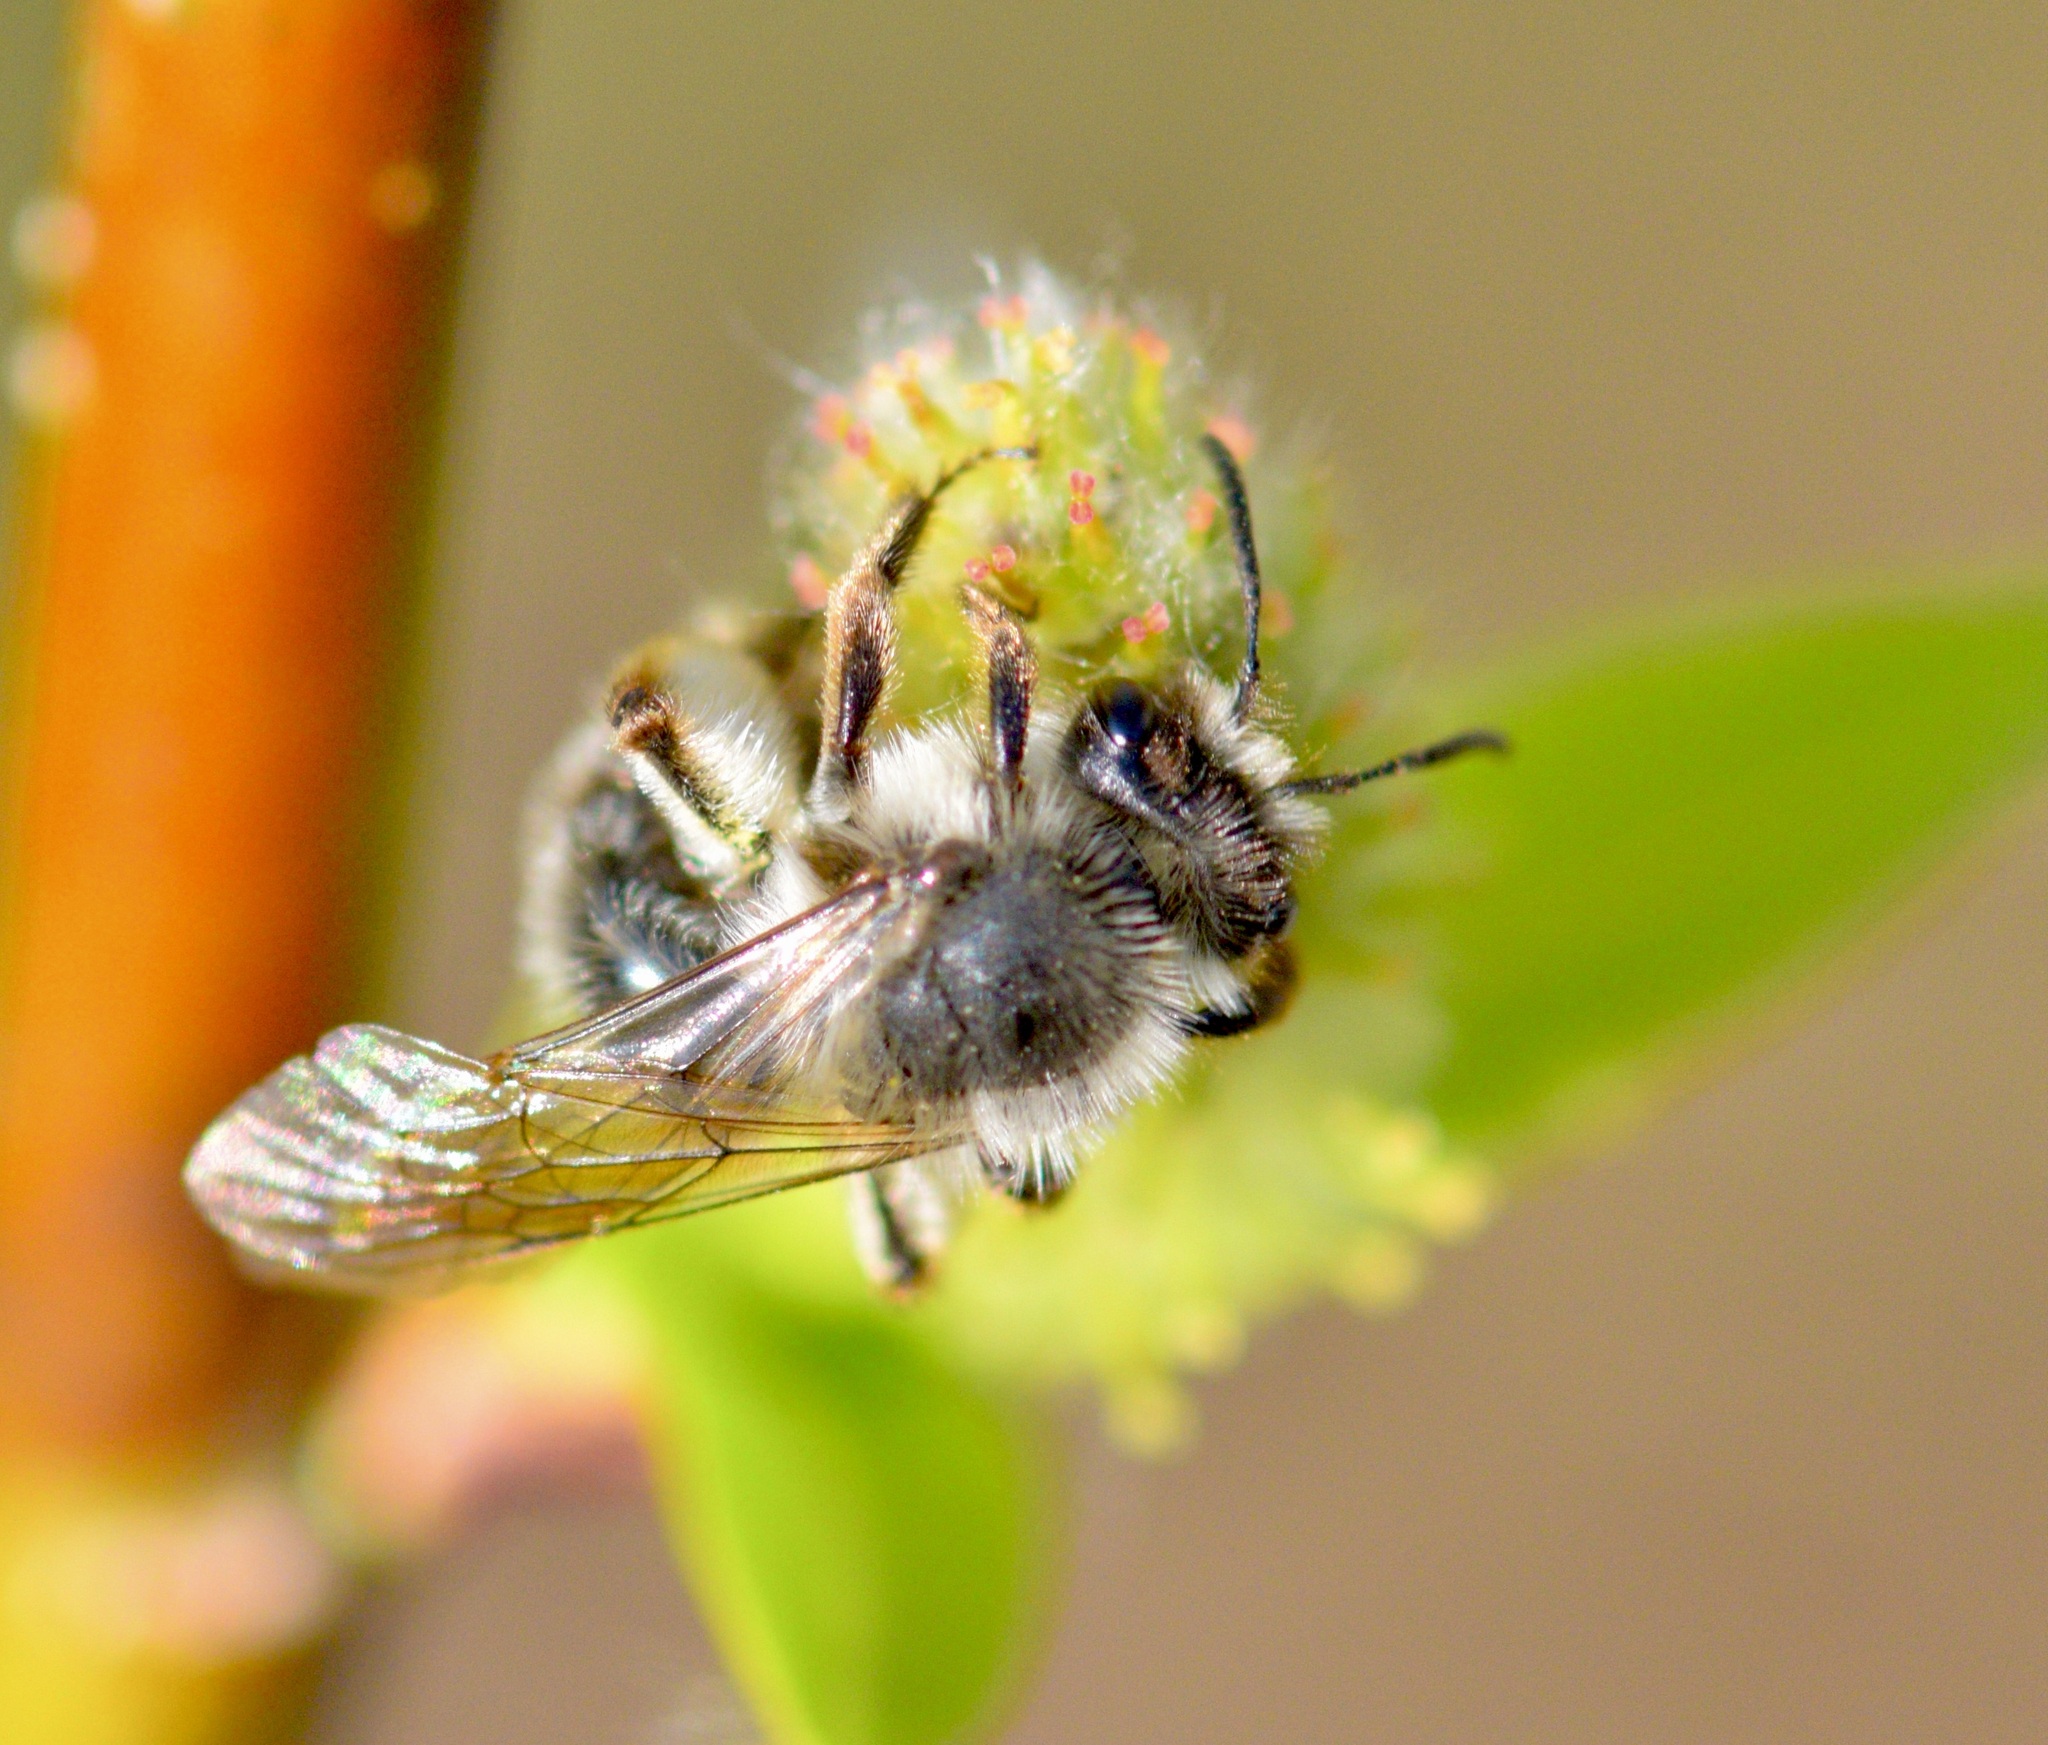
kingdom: Animalia
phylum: Arthropoda
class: Insecta
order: Hymenoptera
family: Andrenidae
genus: Andrena
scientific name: Andrena frigida
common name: Frigid mining bee
